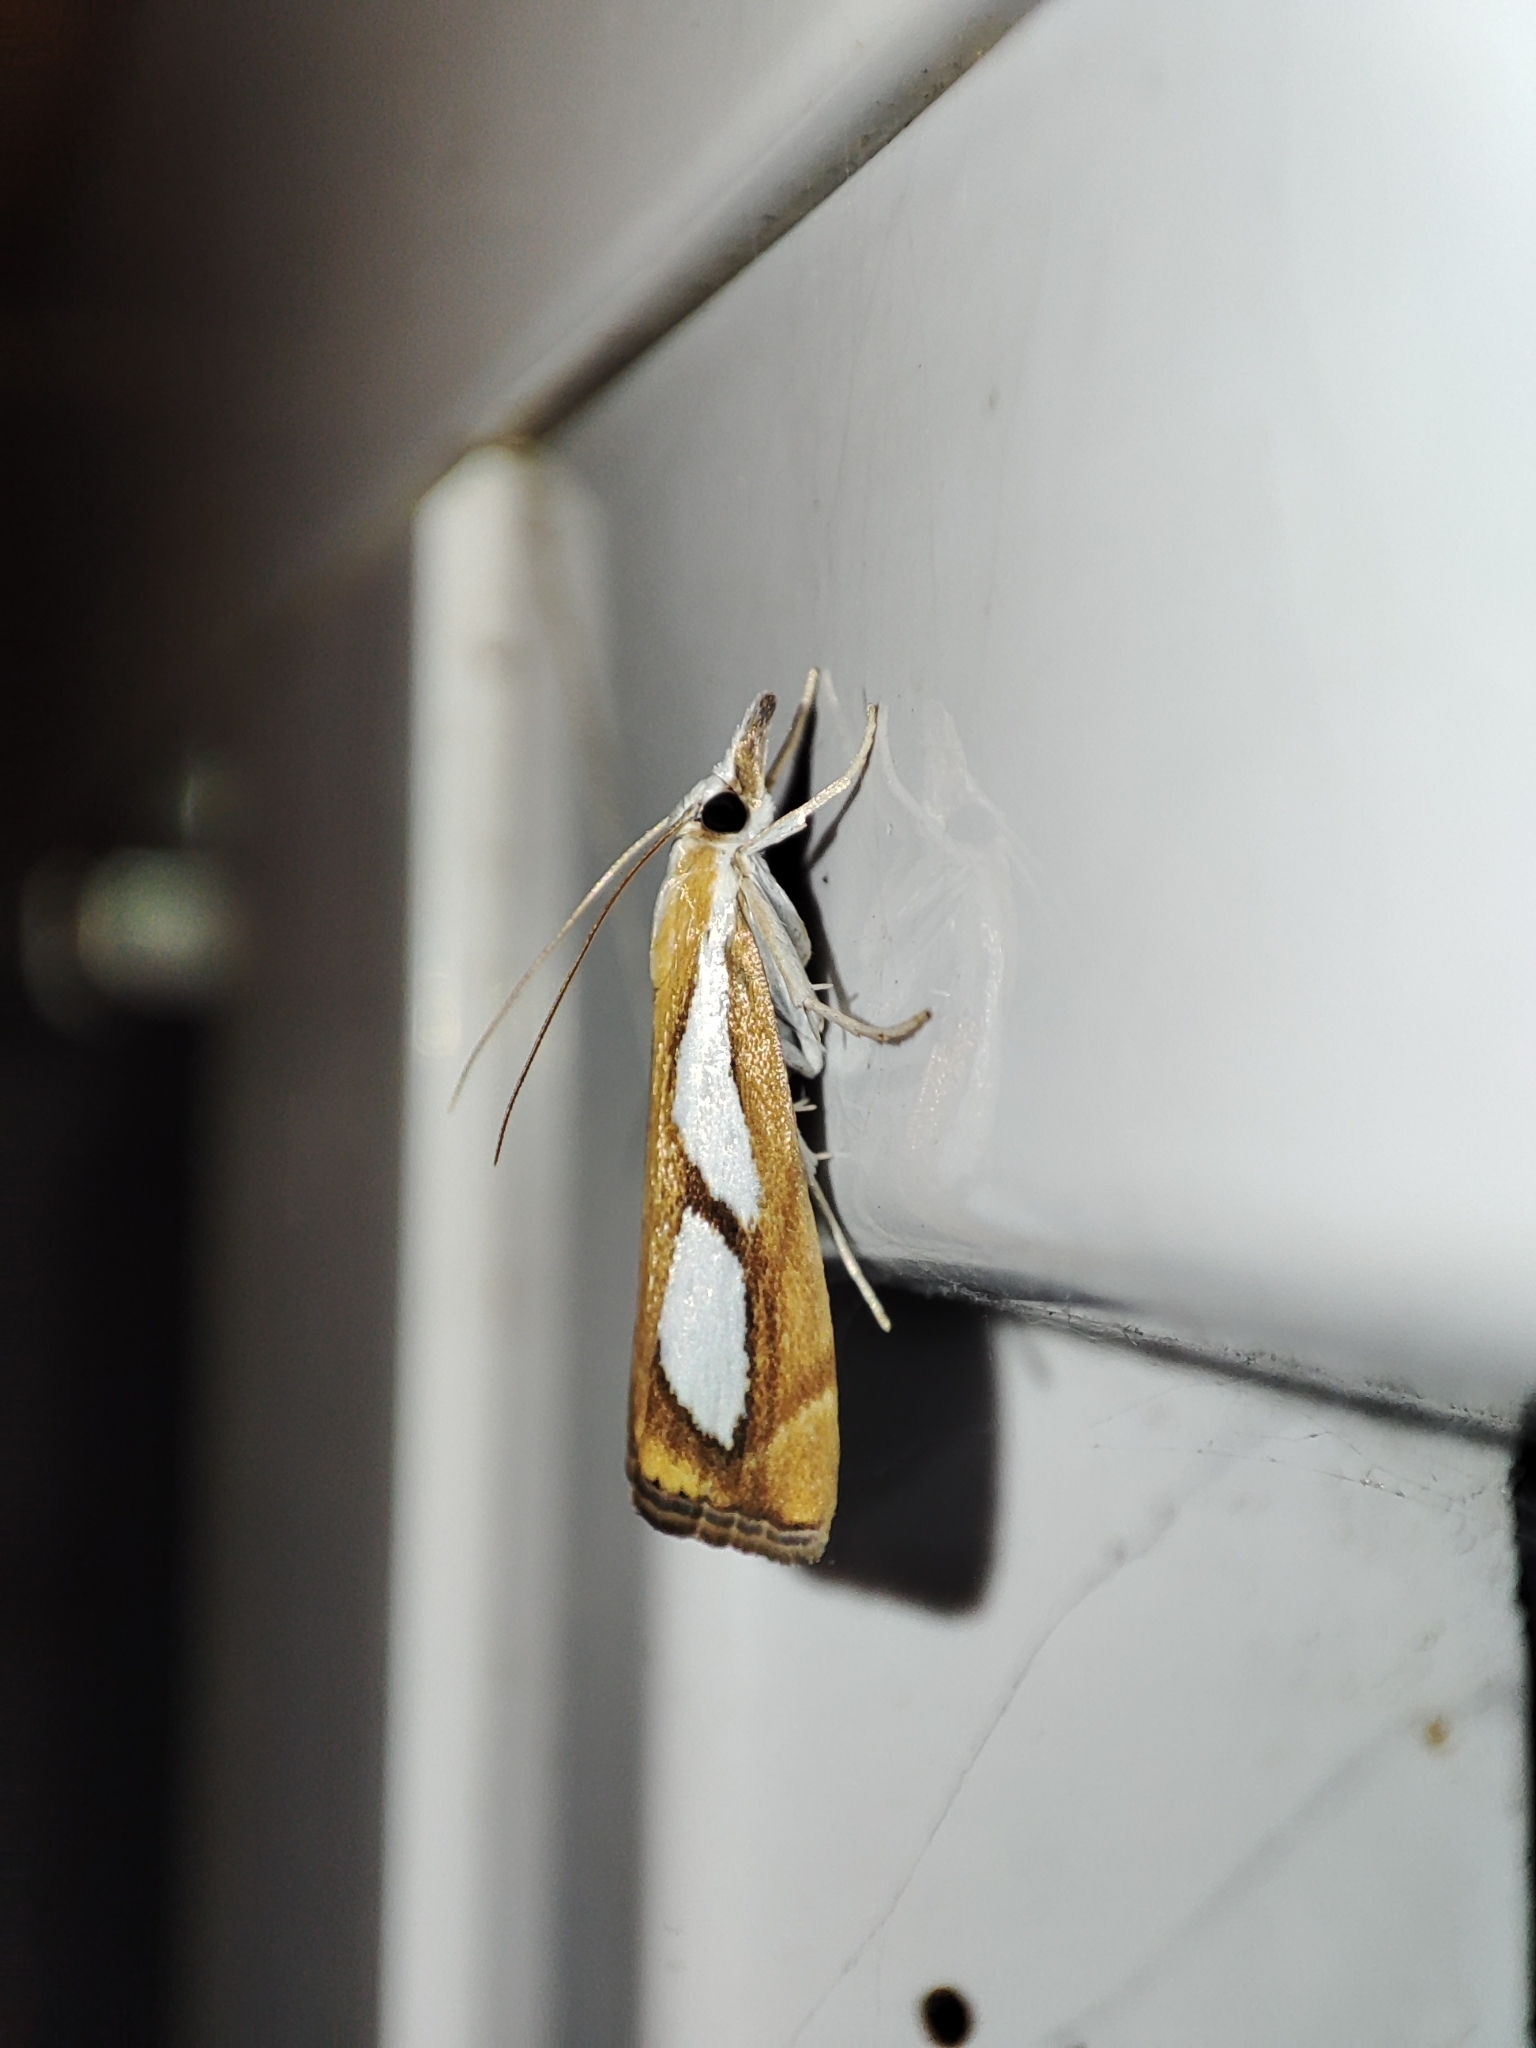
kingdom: Animalia
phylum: Arthropoda
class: Insecta
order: Lepidoptera
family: Crambidae
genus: Catoptria
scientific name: Catoptria pinella
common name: Pearl grass-veneer
